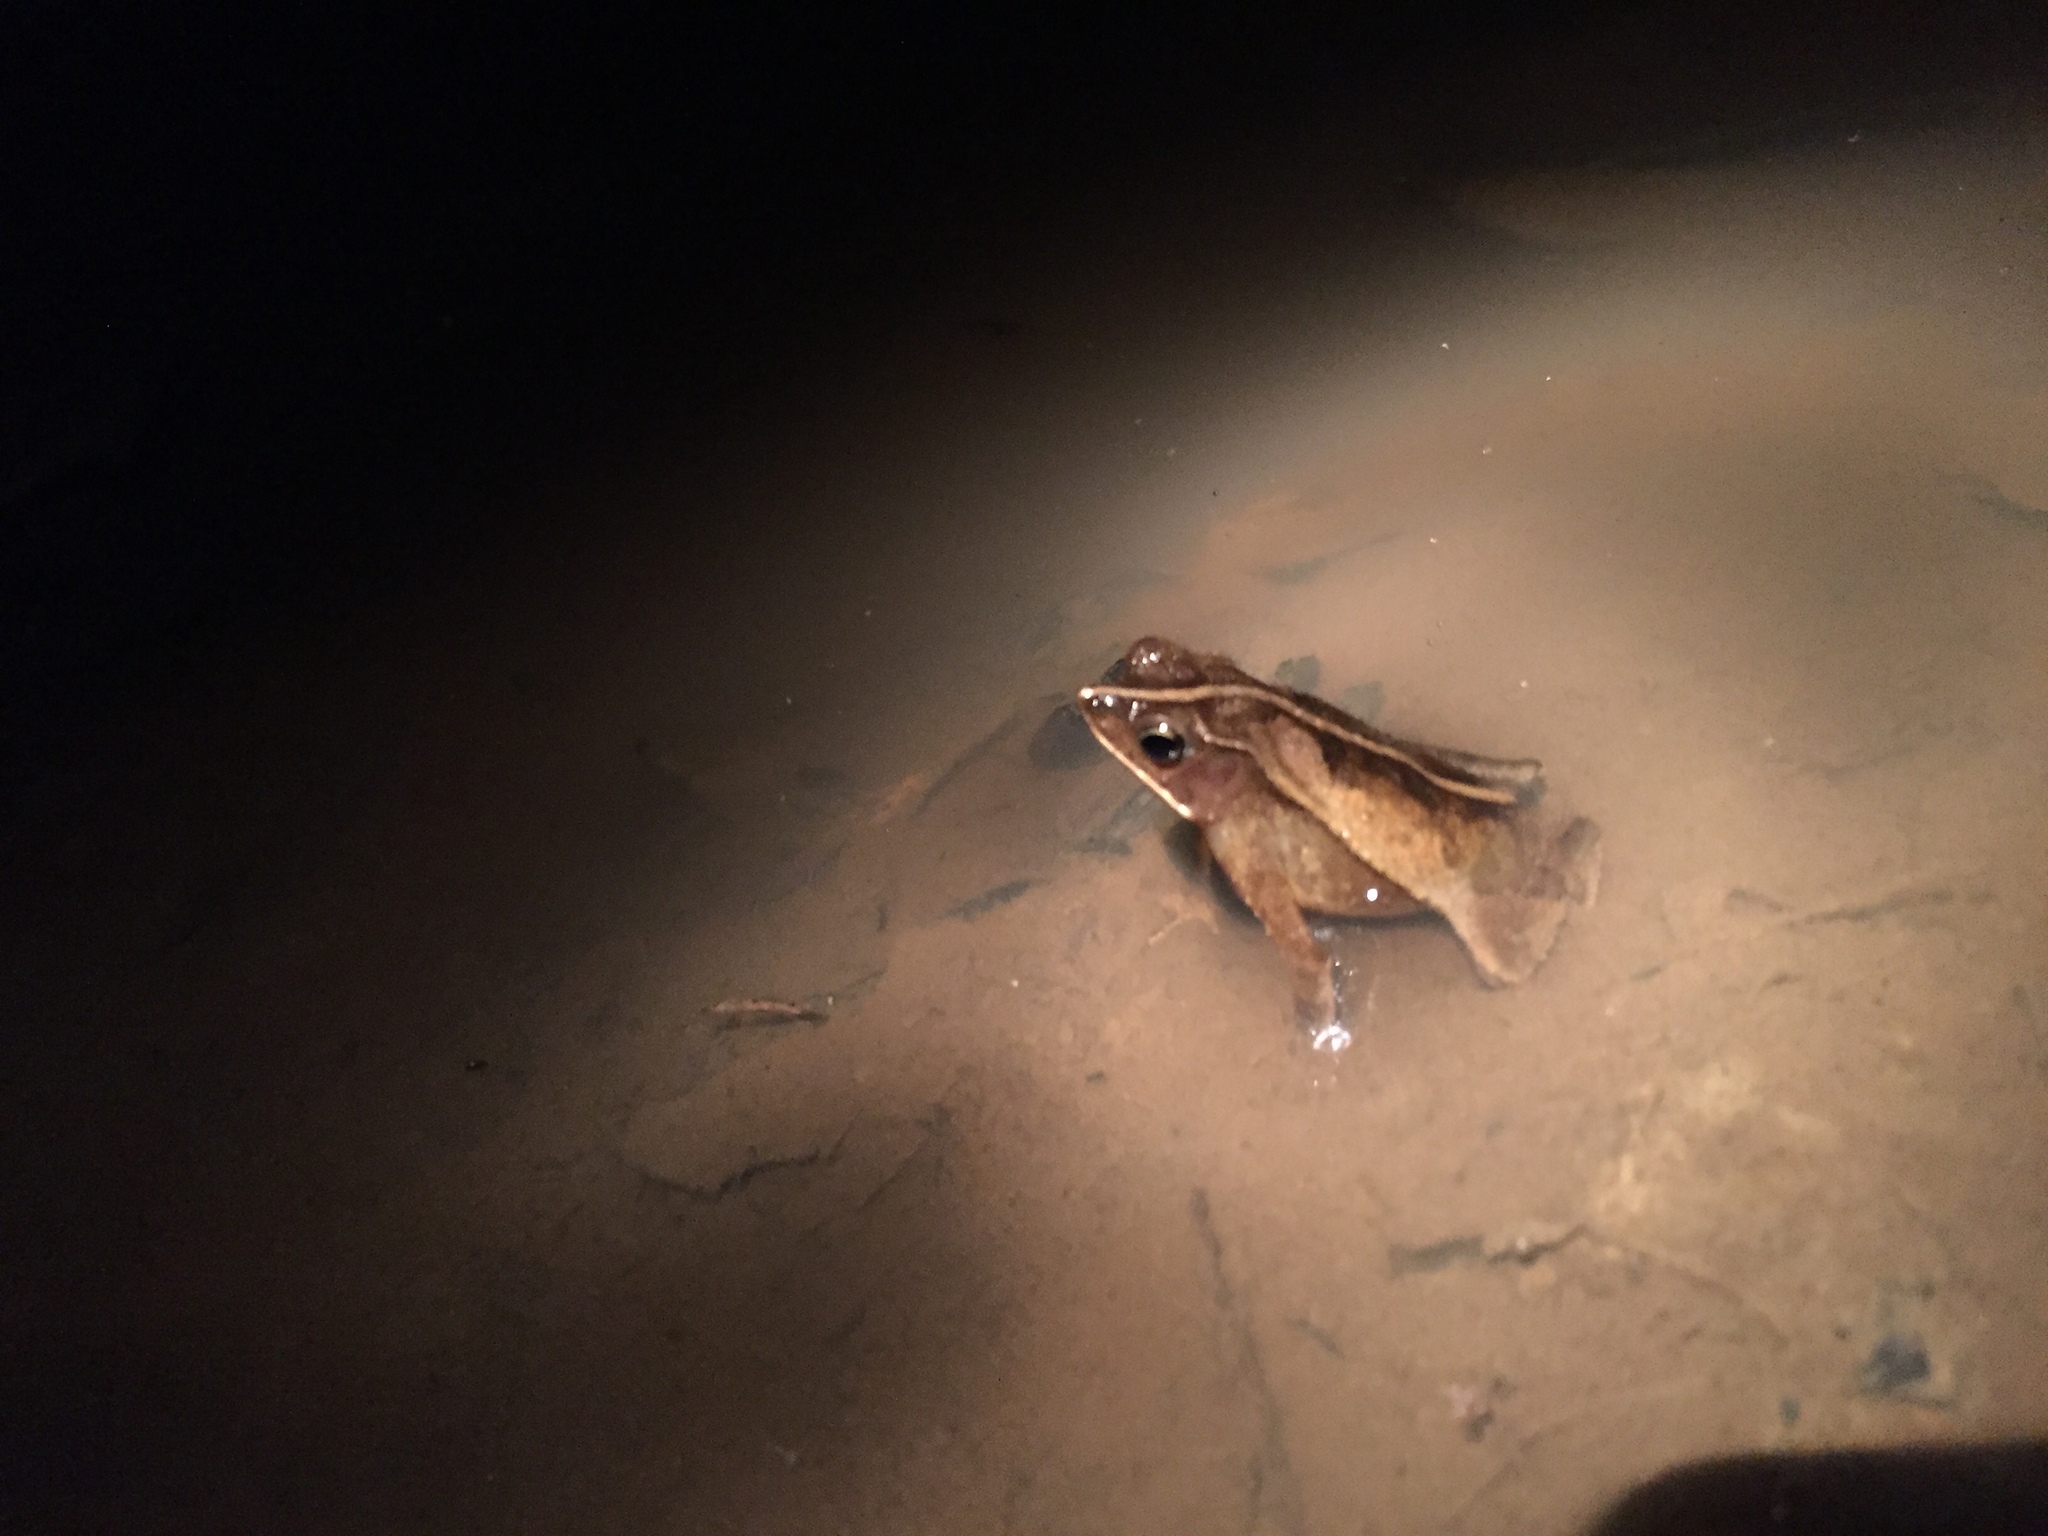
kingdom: Animalia
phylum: Chordata
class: Amphibia
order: Anura
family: Bufonidae
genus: Rhinella
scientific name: Rhinella margaritifera
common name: Mitred toad
